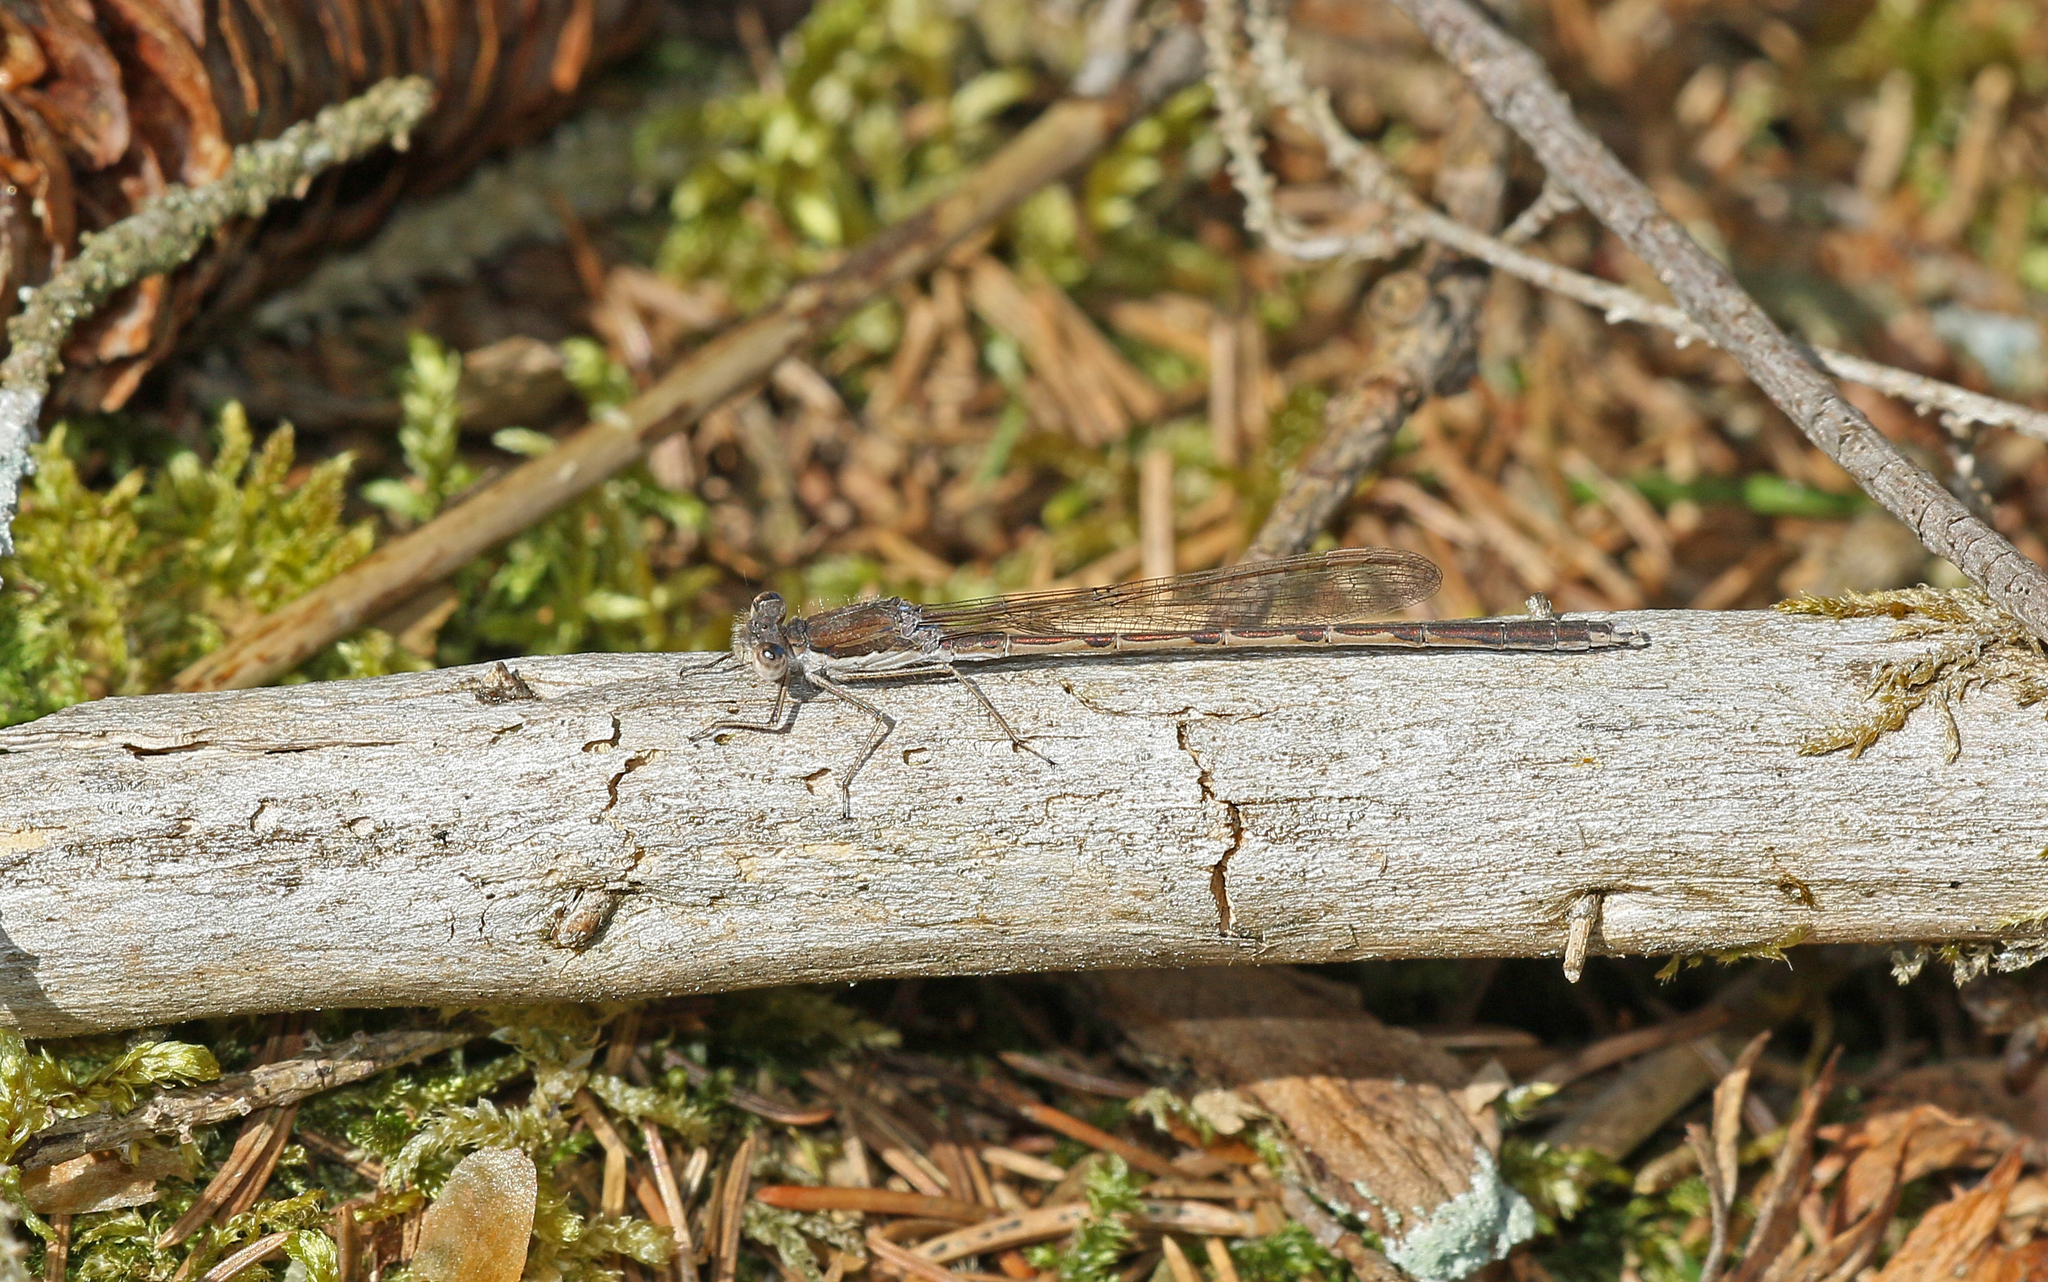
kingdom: Animalia
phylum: Arthropoda
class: Insecta
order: Odonata
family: Lestidae
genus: Sympecma
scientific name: Sympecma fusca
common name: Common winter damsel
